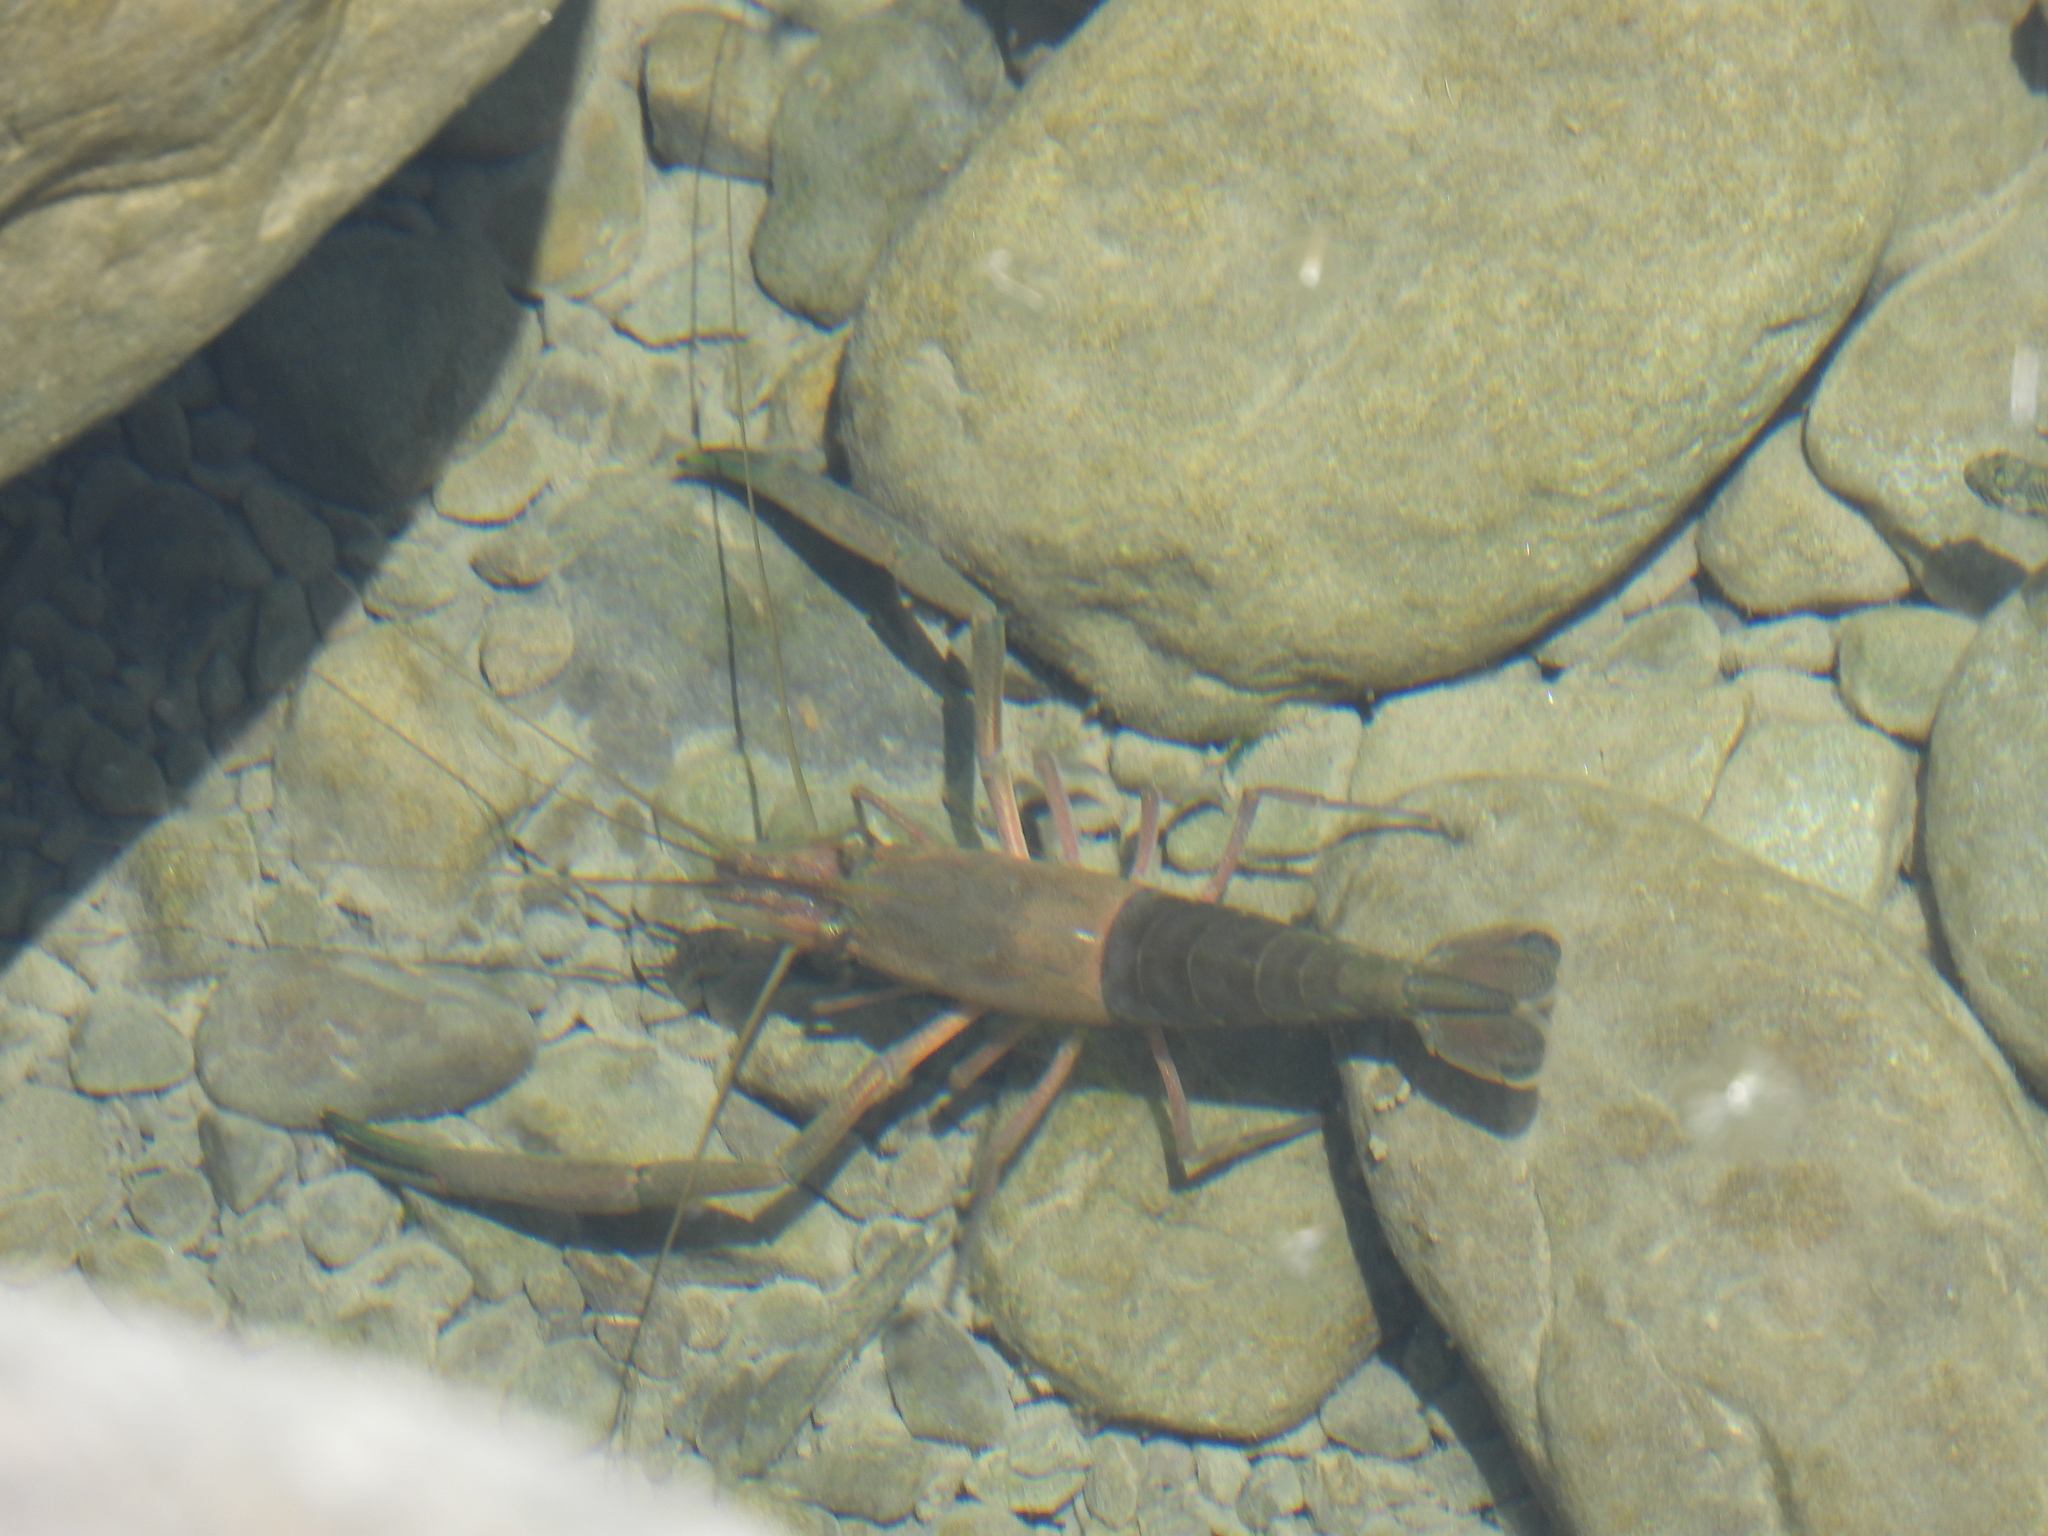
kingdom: Animalia
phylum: Arthropoda
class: Malacostraca
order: Decapoda
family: Palaemonidae
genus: Macrobrachium
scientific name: Macrobrachium asperulum
